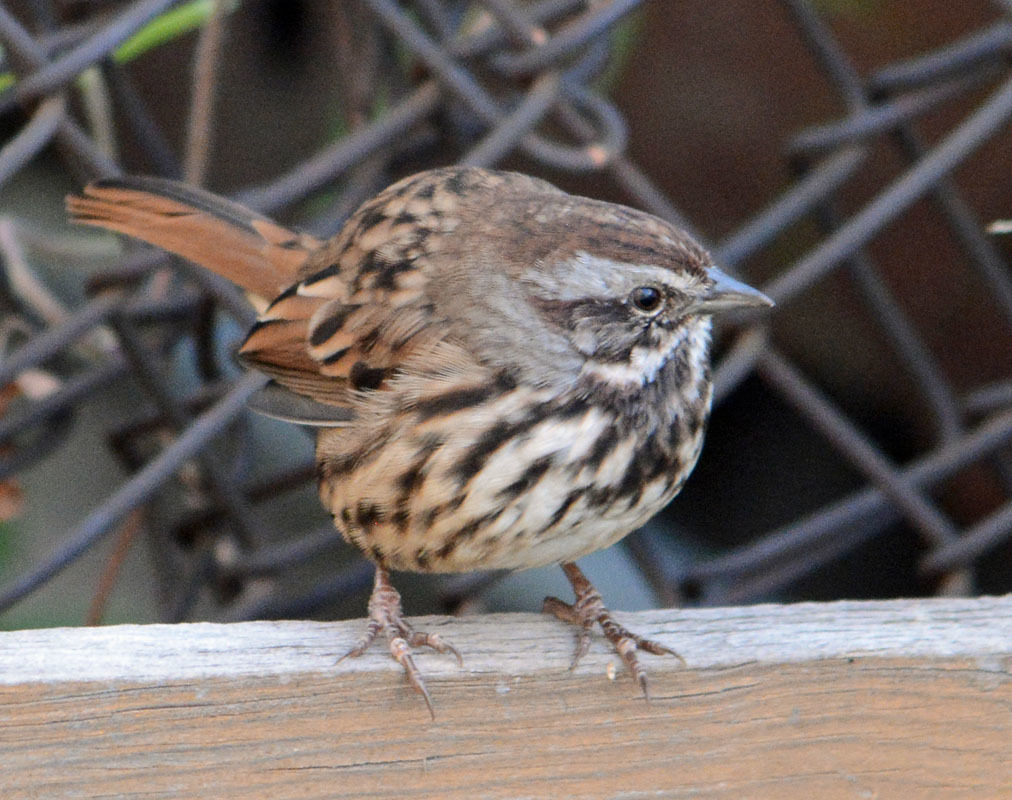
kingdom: Animalia
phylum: Chordata
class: Aves
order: Passeriformes
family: Passerellidae
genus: Melospiza
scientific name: Melospiza melodia
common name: Song sparrow
